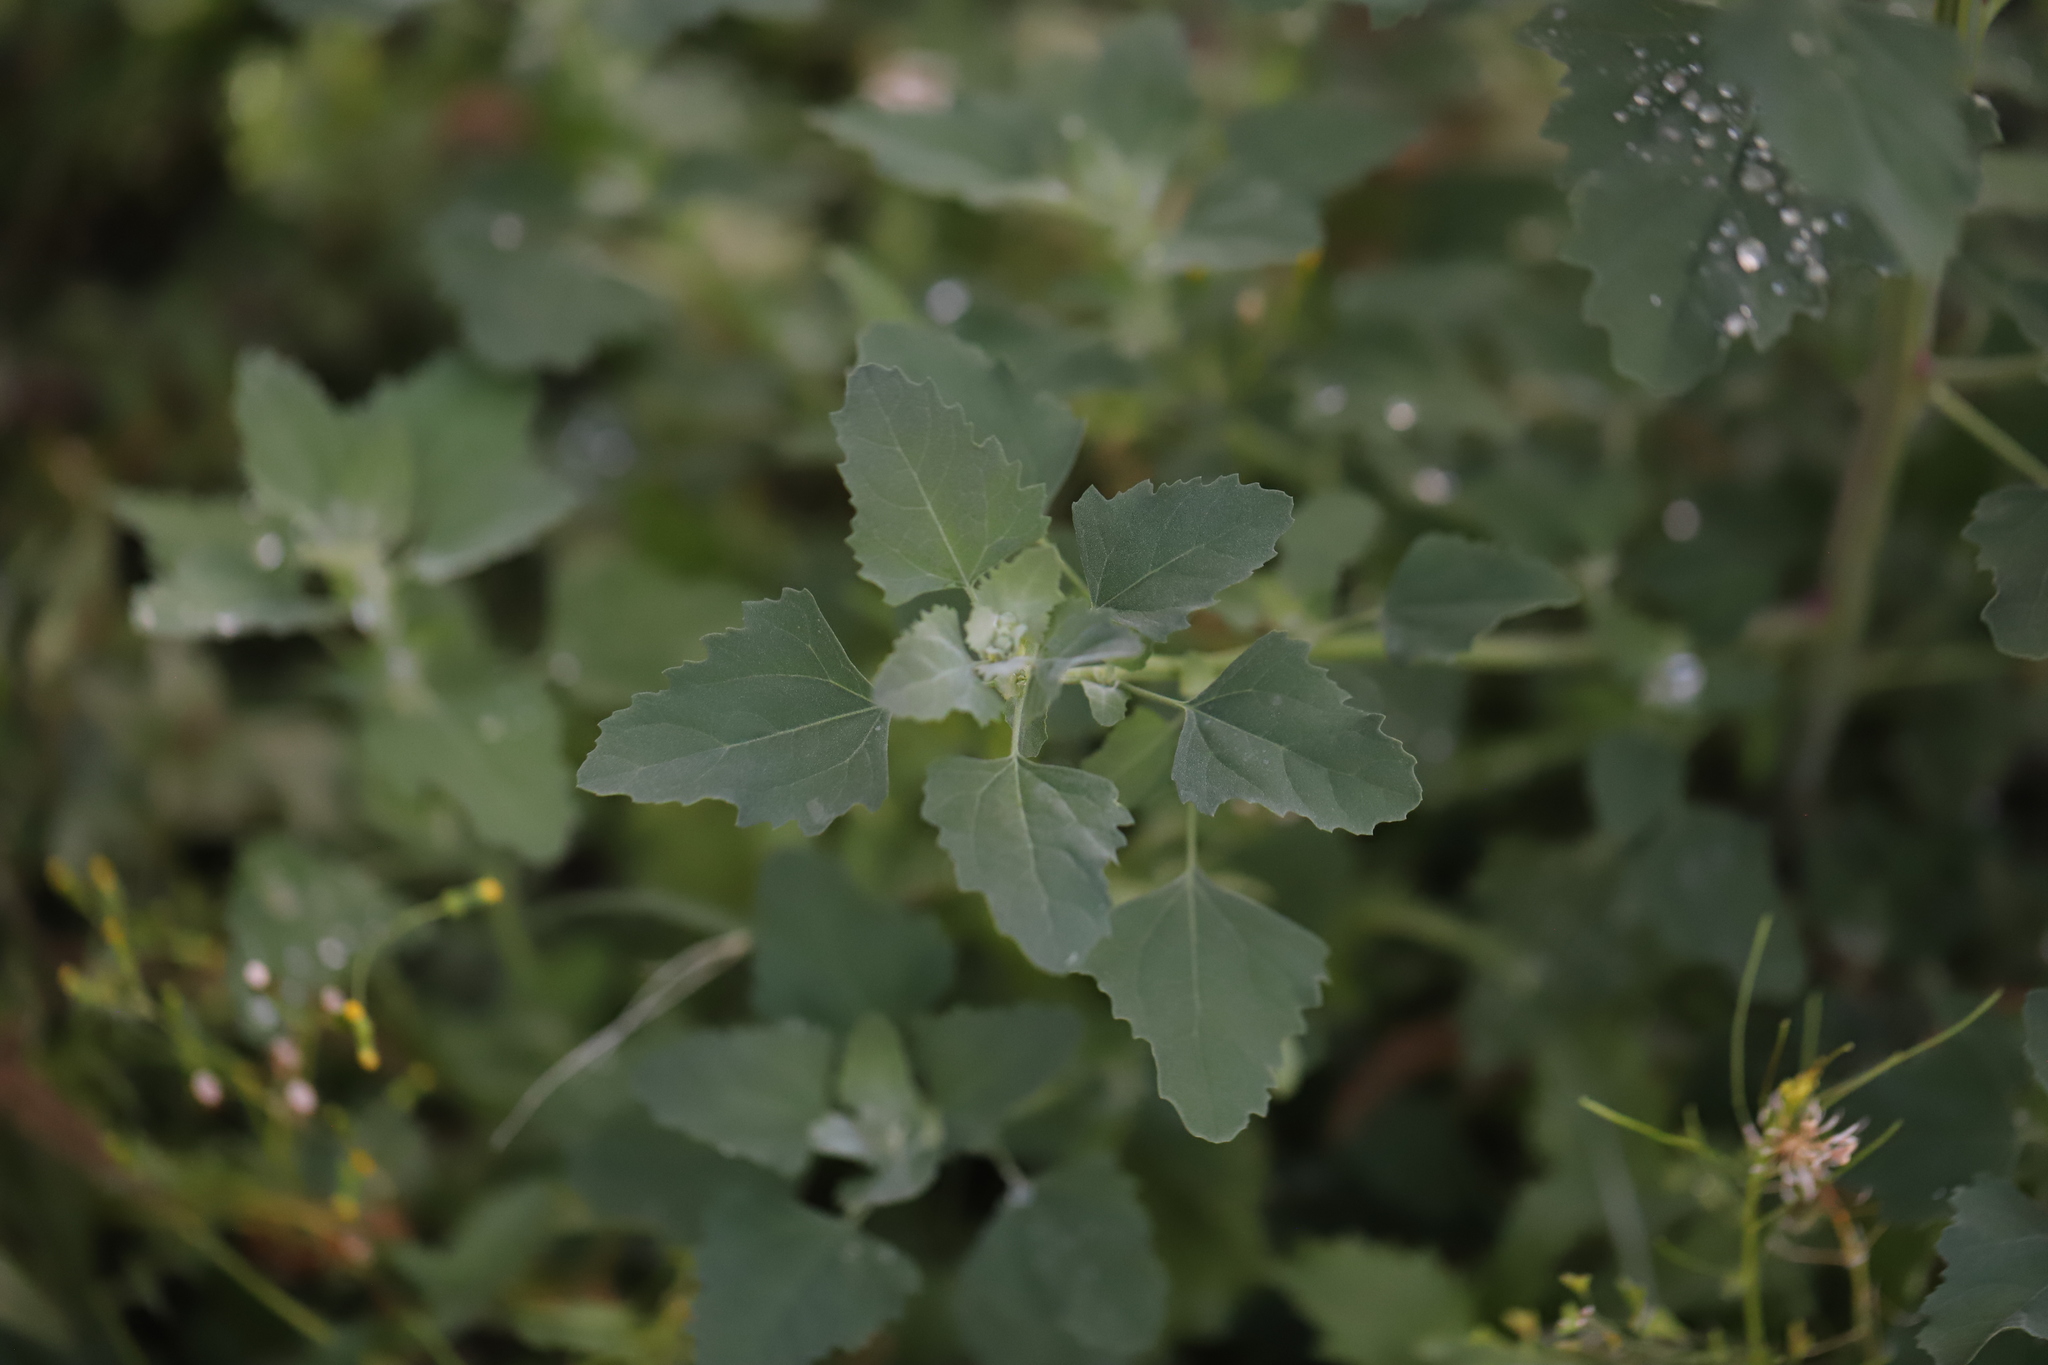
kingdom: Plantae
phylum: Tracheophyta
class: Magnoliopsida
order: Caryophyllales
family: Amaranthaceae
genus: Chenopodium
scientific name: Chenopodium album
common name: Fat-hen
